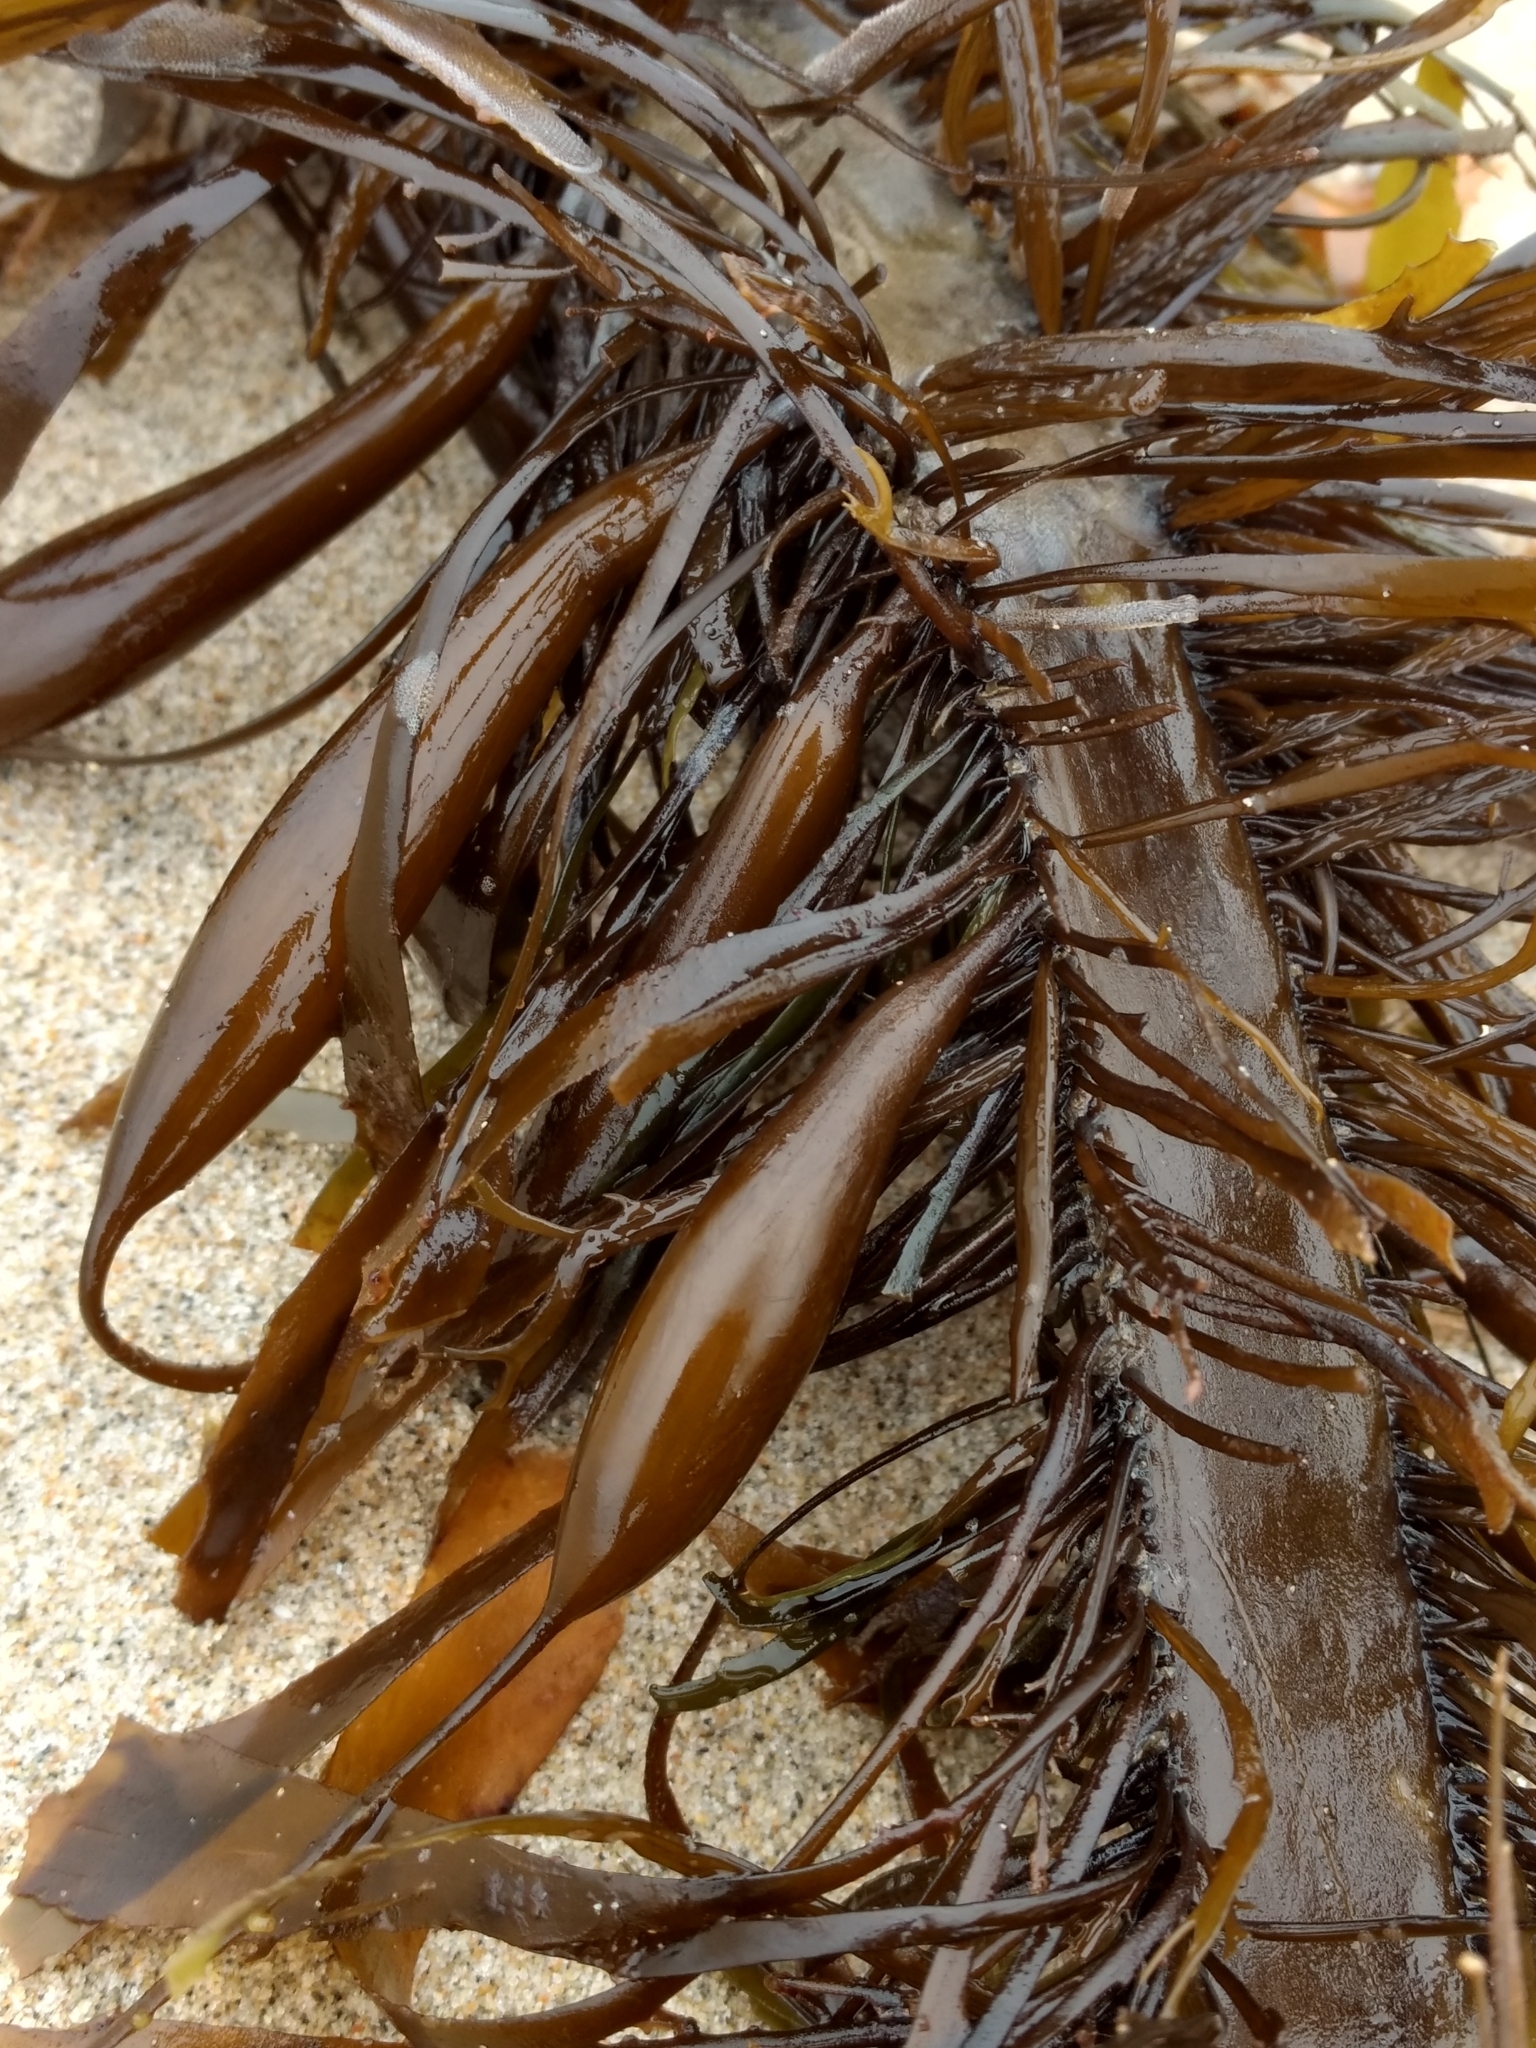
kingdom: Chromista
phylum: Ochrophyta
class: Phaeophyceae
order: Laminariales
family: Lessoniaceae
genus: Egregia
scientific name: Egregia menziesii
